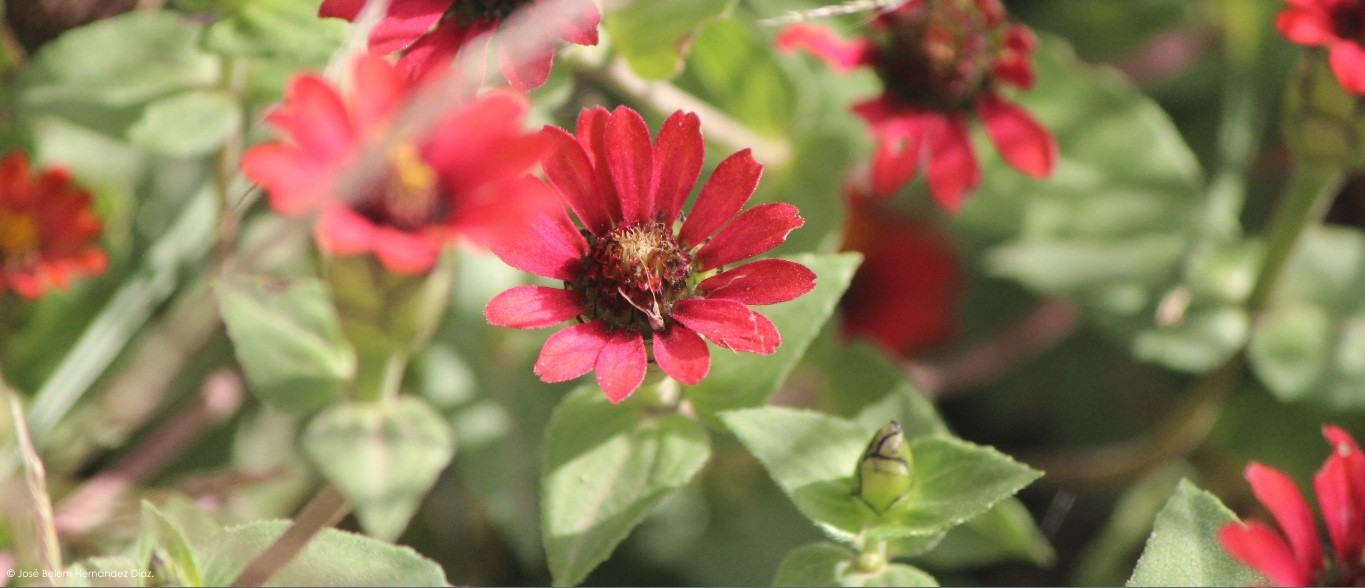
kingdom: Plantae
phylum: Tracheophyta
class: Magnoliopsida
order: Asterales
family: Asteraceae
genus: Zinnia
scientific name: Zinnia peruviana
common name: Peruvian zinnia
